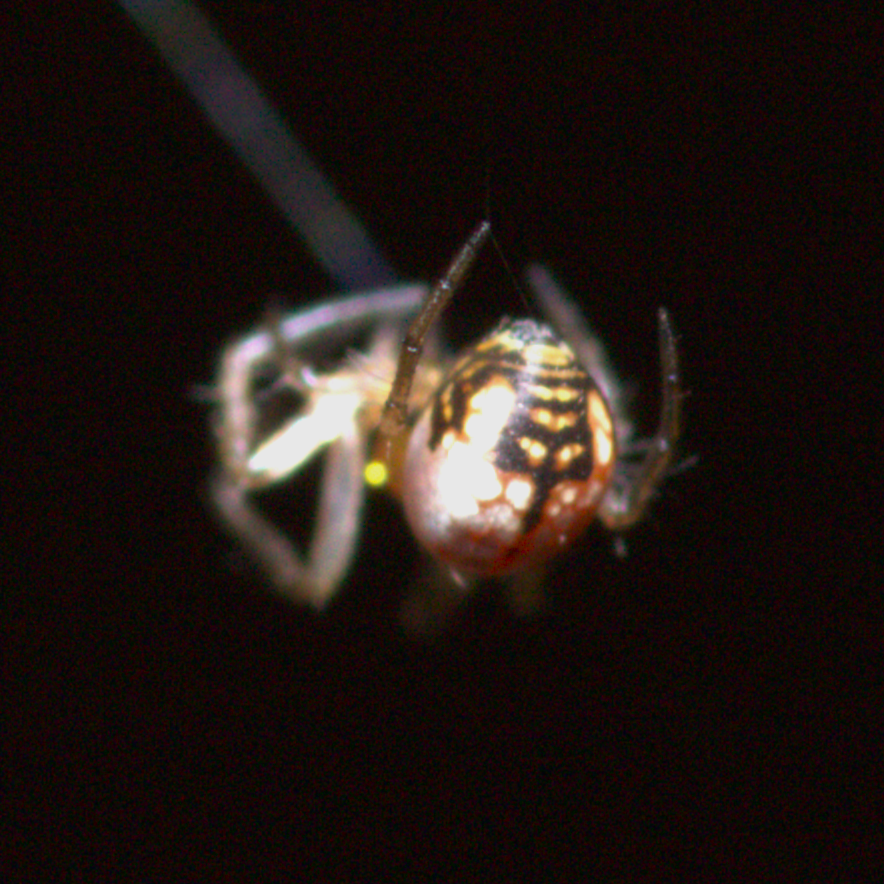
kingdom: Animalia
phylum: Arthropoda
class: Arachnida
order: Araneae
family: Tetragnathidae
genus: Leucauge
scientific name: Leucauge venusta
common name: Longjawed orb weavers
